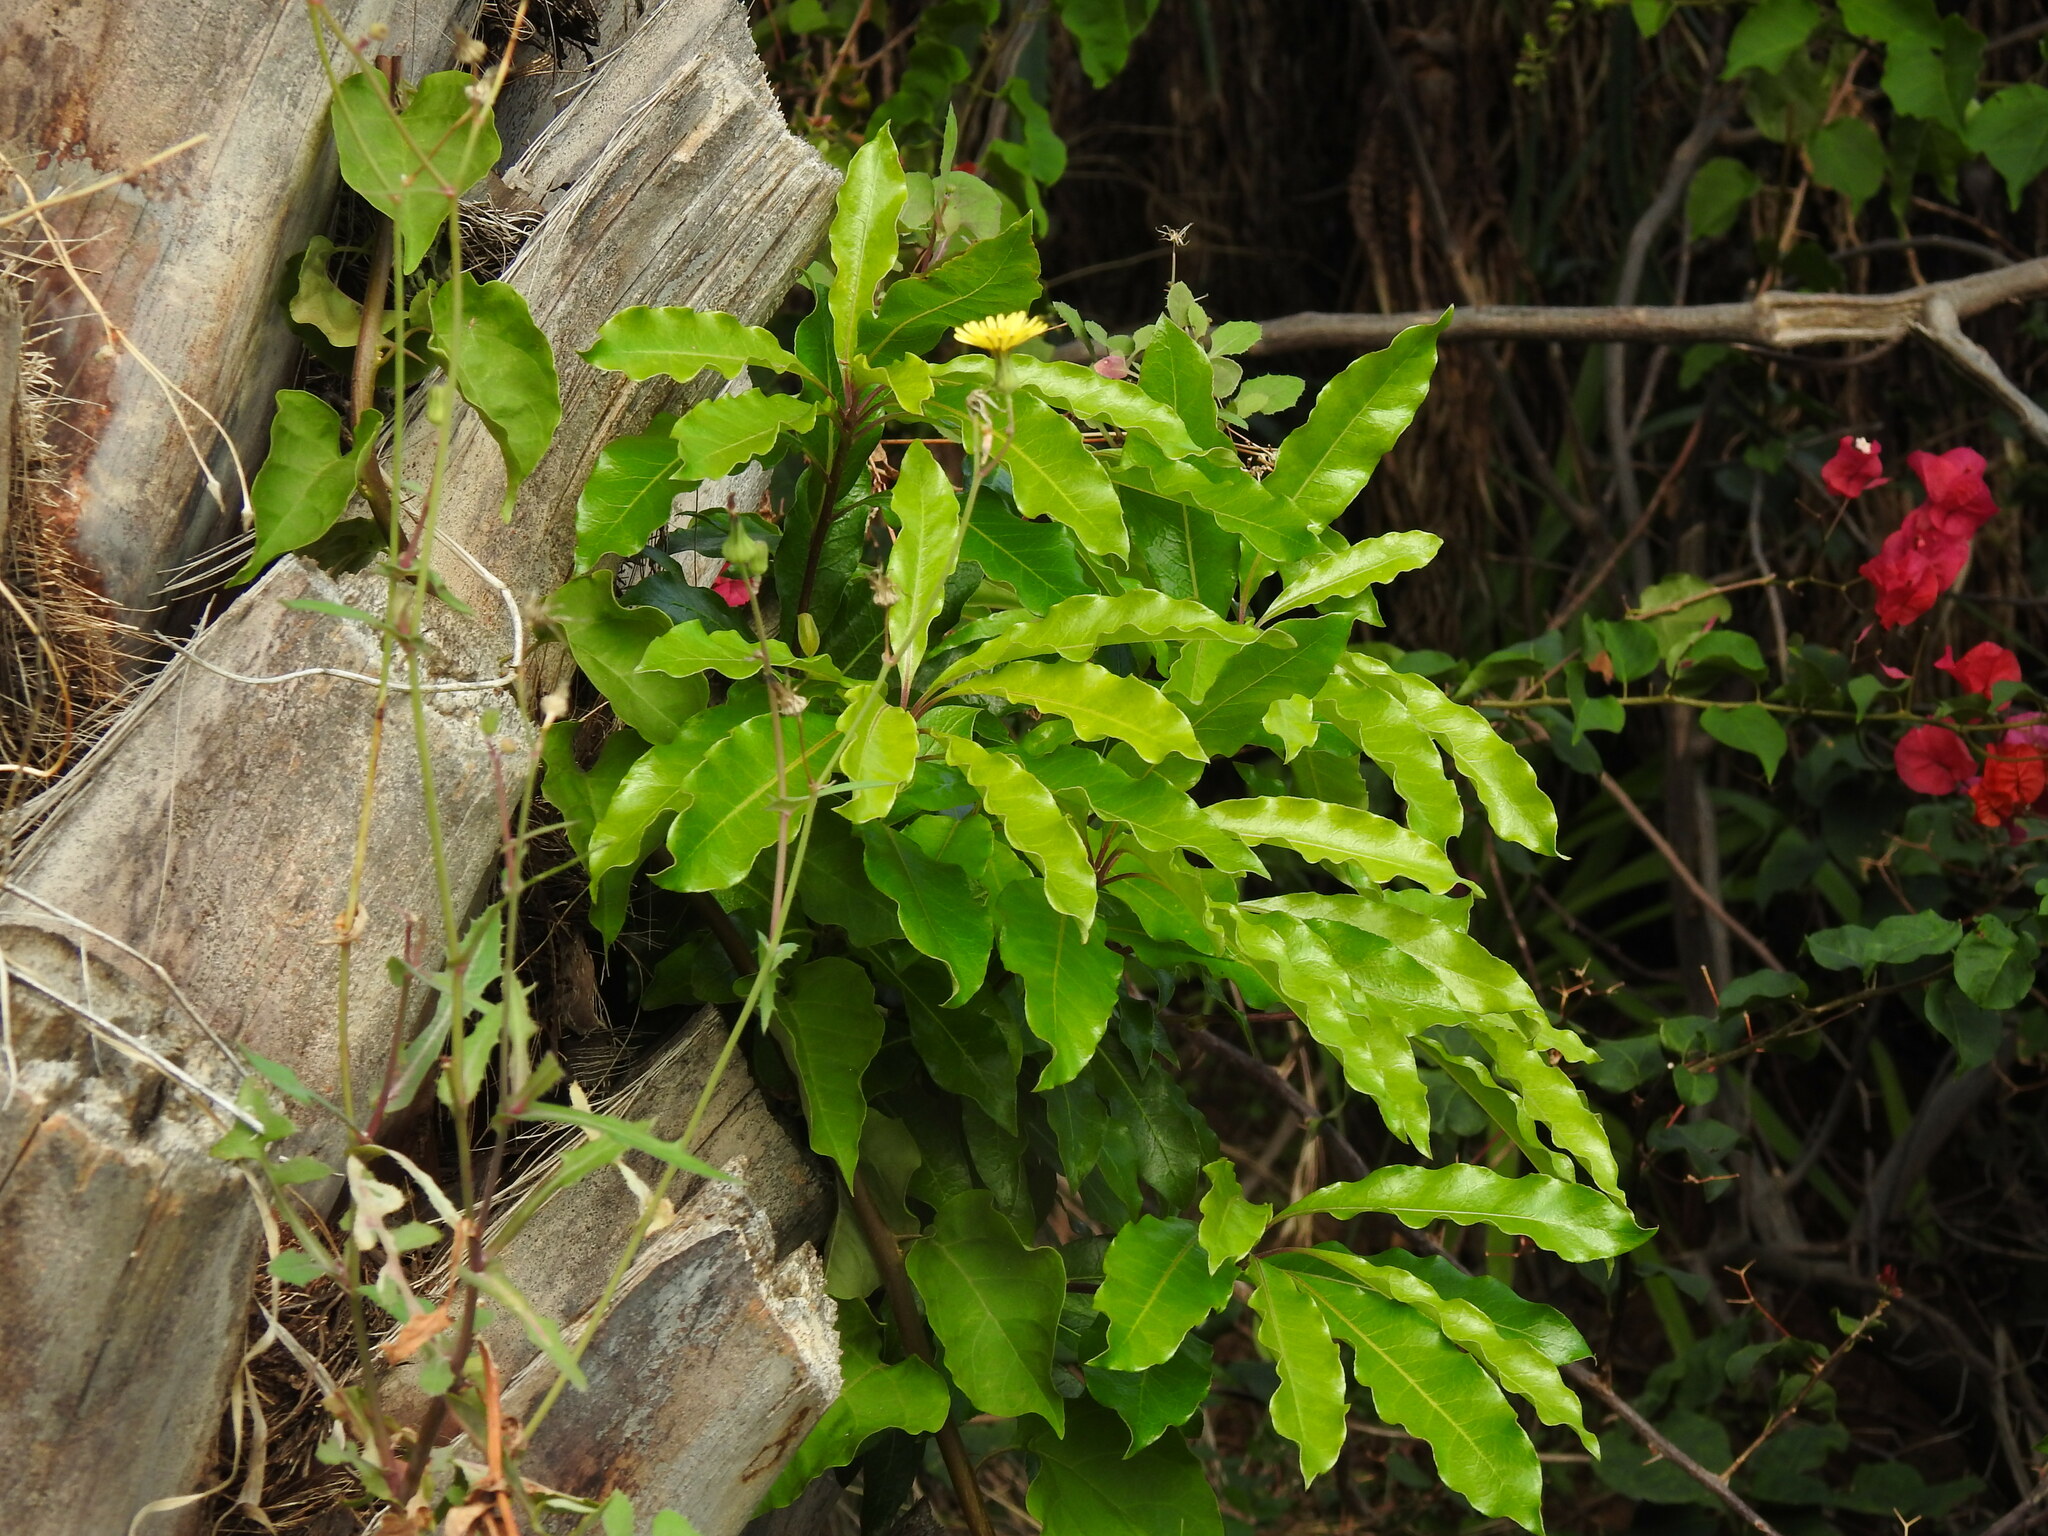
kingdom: Plantae
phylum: Tracheophyta
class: Magnoliopsida
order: Apiales
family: Pittosporaceae
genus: Pittosporum
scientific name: Pittosporum undulatum
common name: Australian cheesewood
